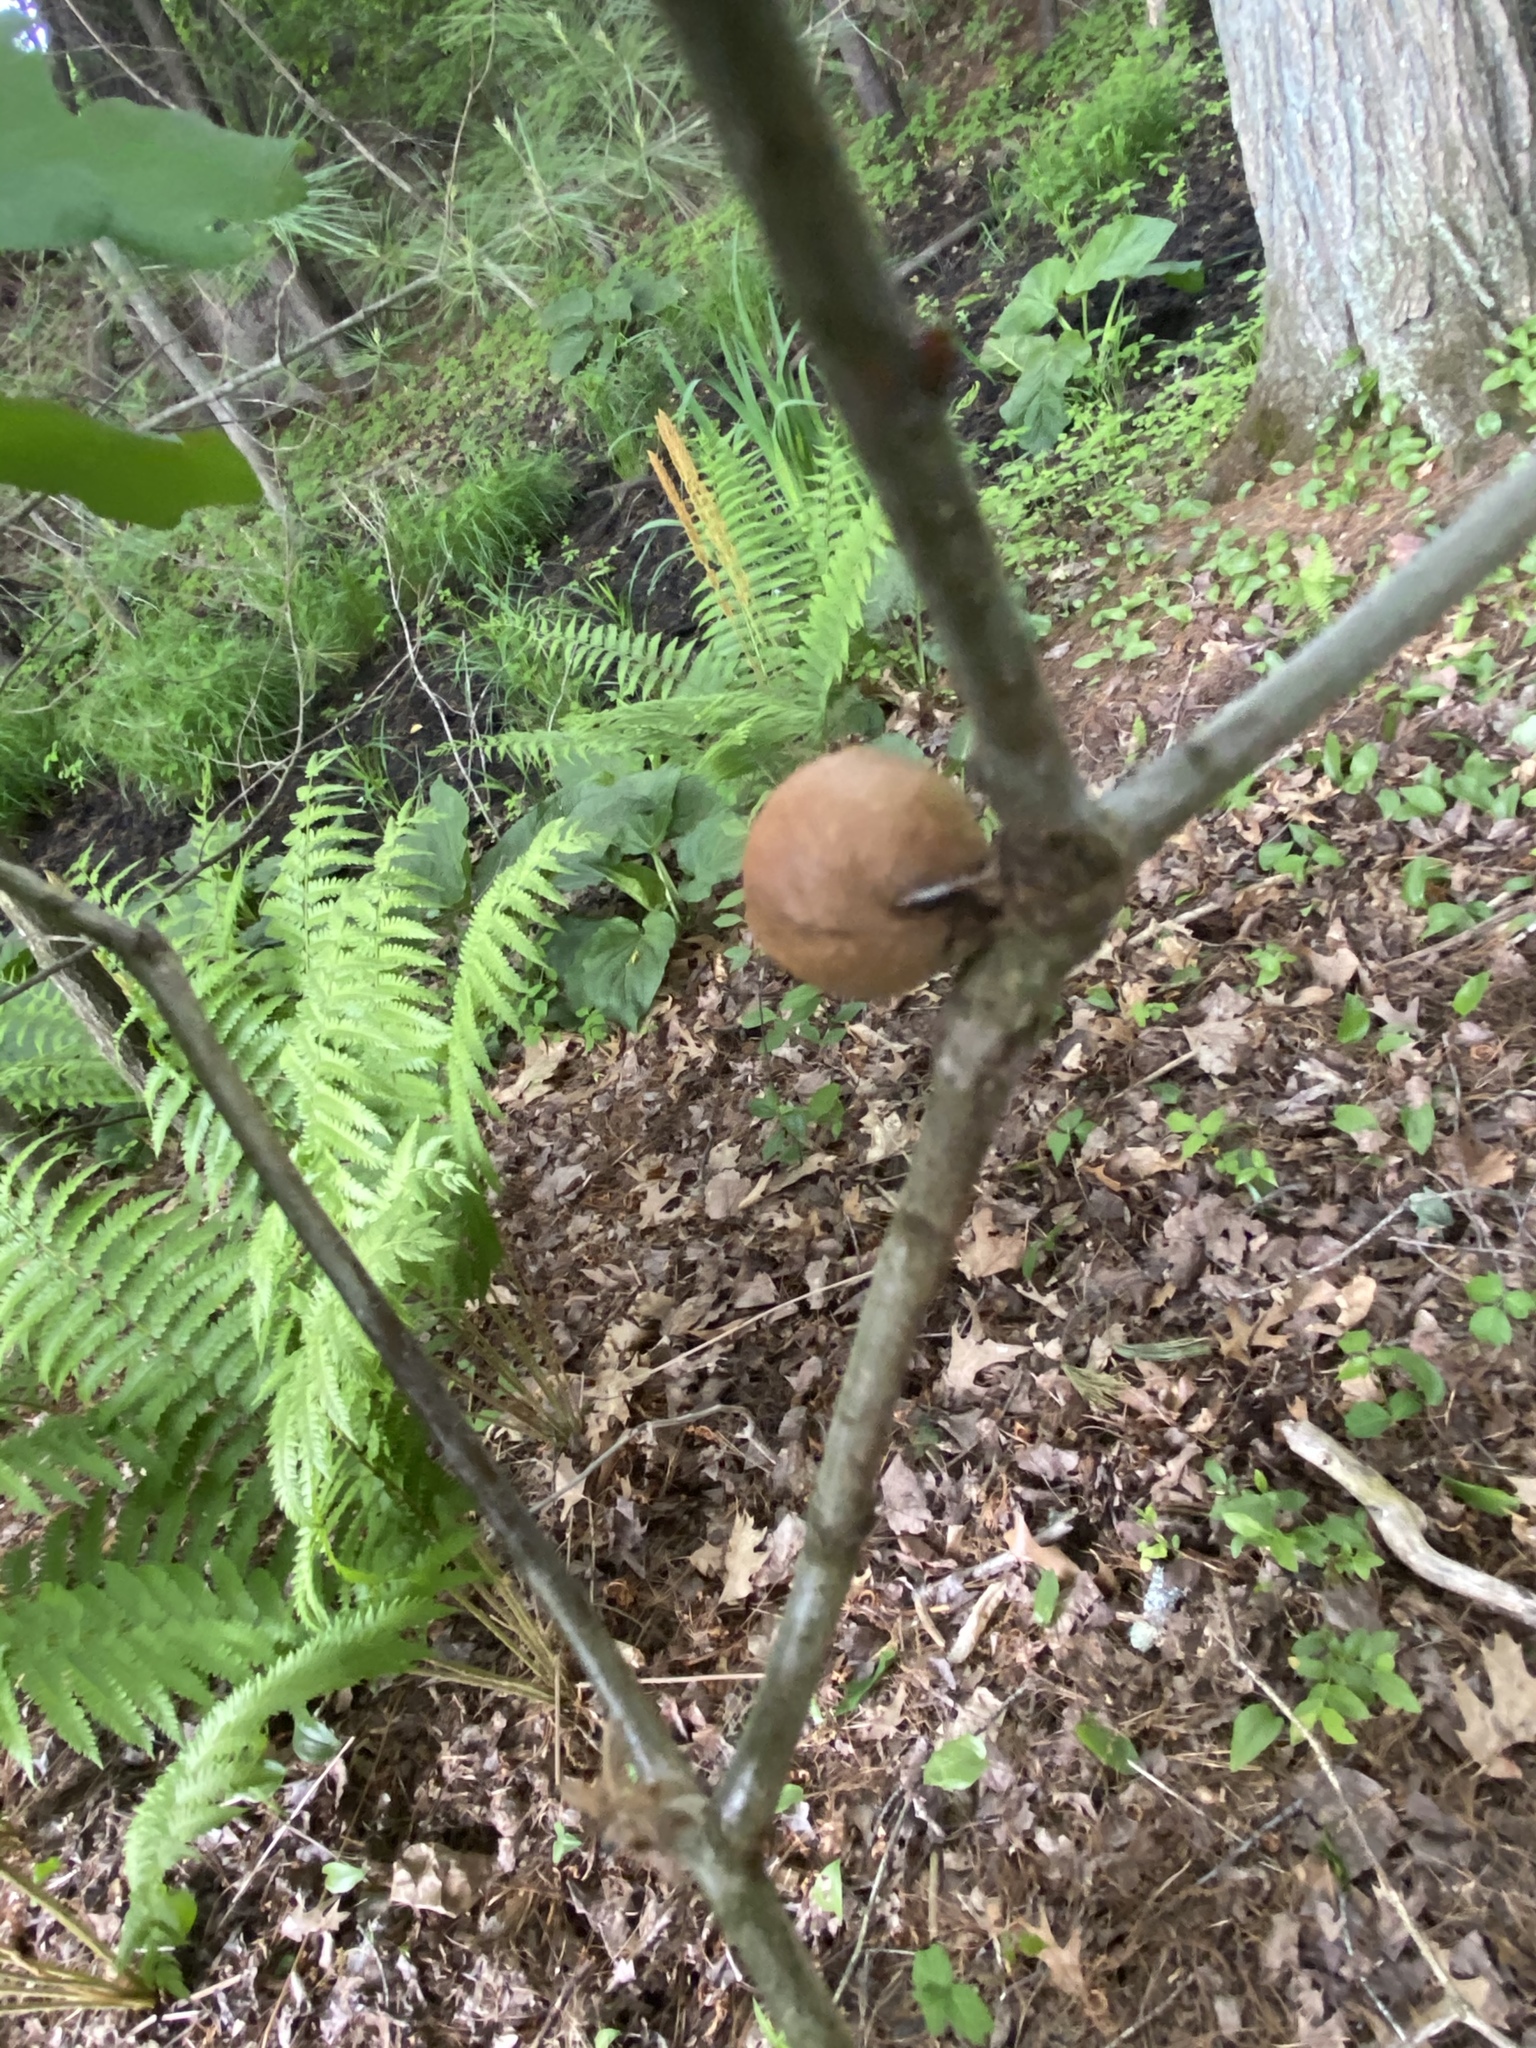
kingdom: Animalia
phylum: Arthropoda
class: Insecta
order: Hymenoptera
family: Cynipidae
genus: Disholcaspis
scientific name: Disholcaspis quercusglobulus
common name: Round bullet gall wasp
